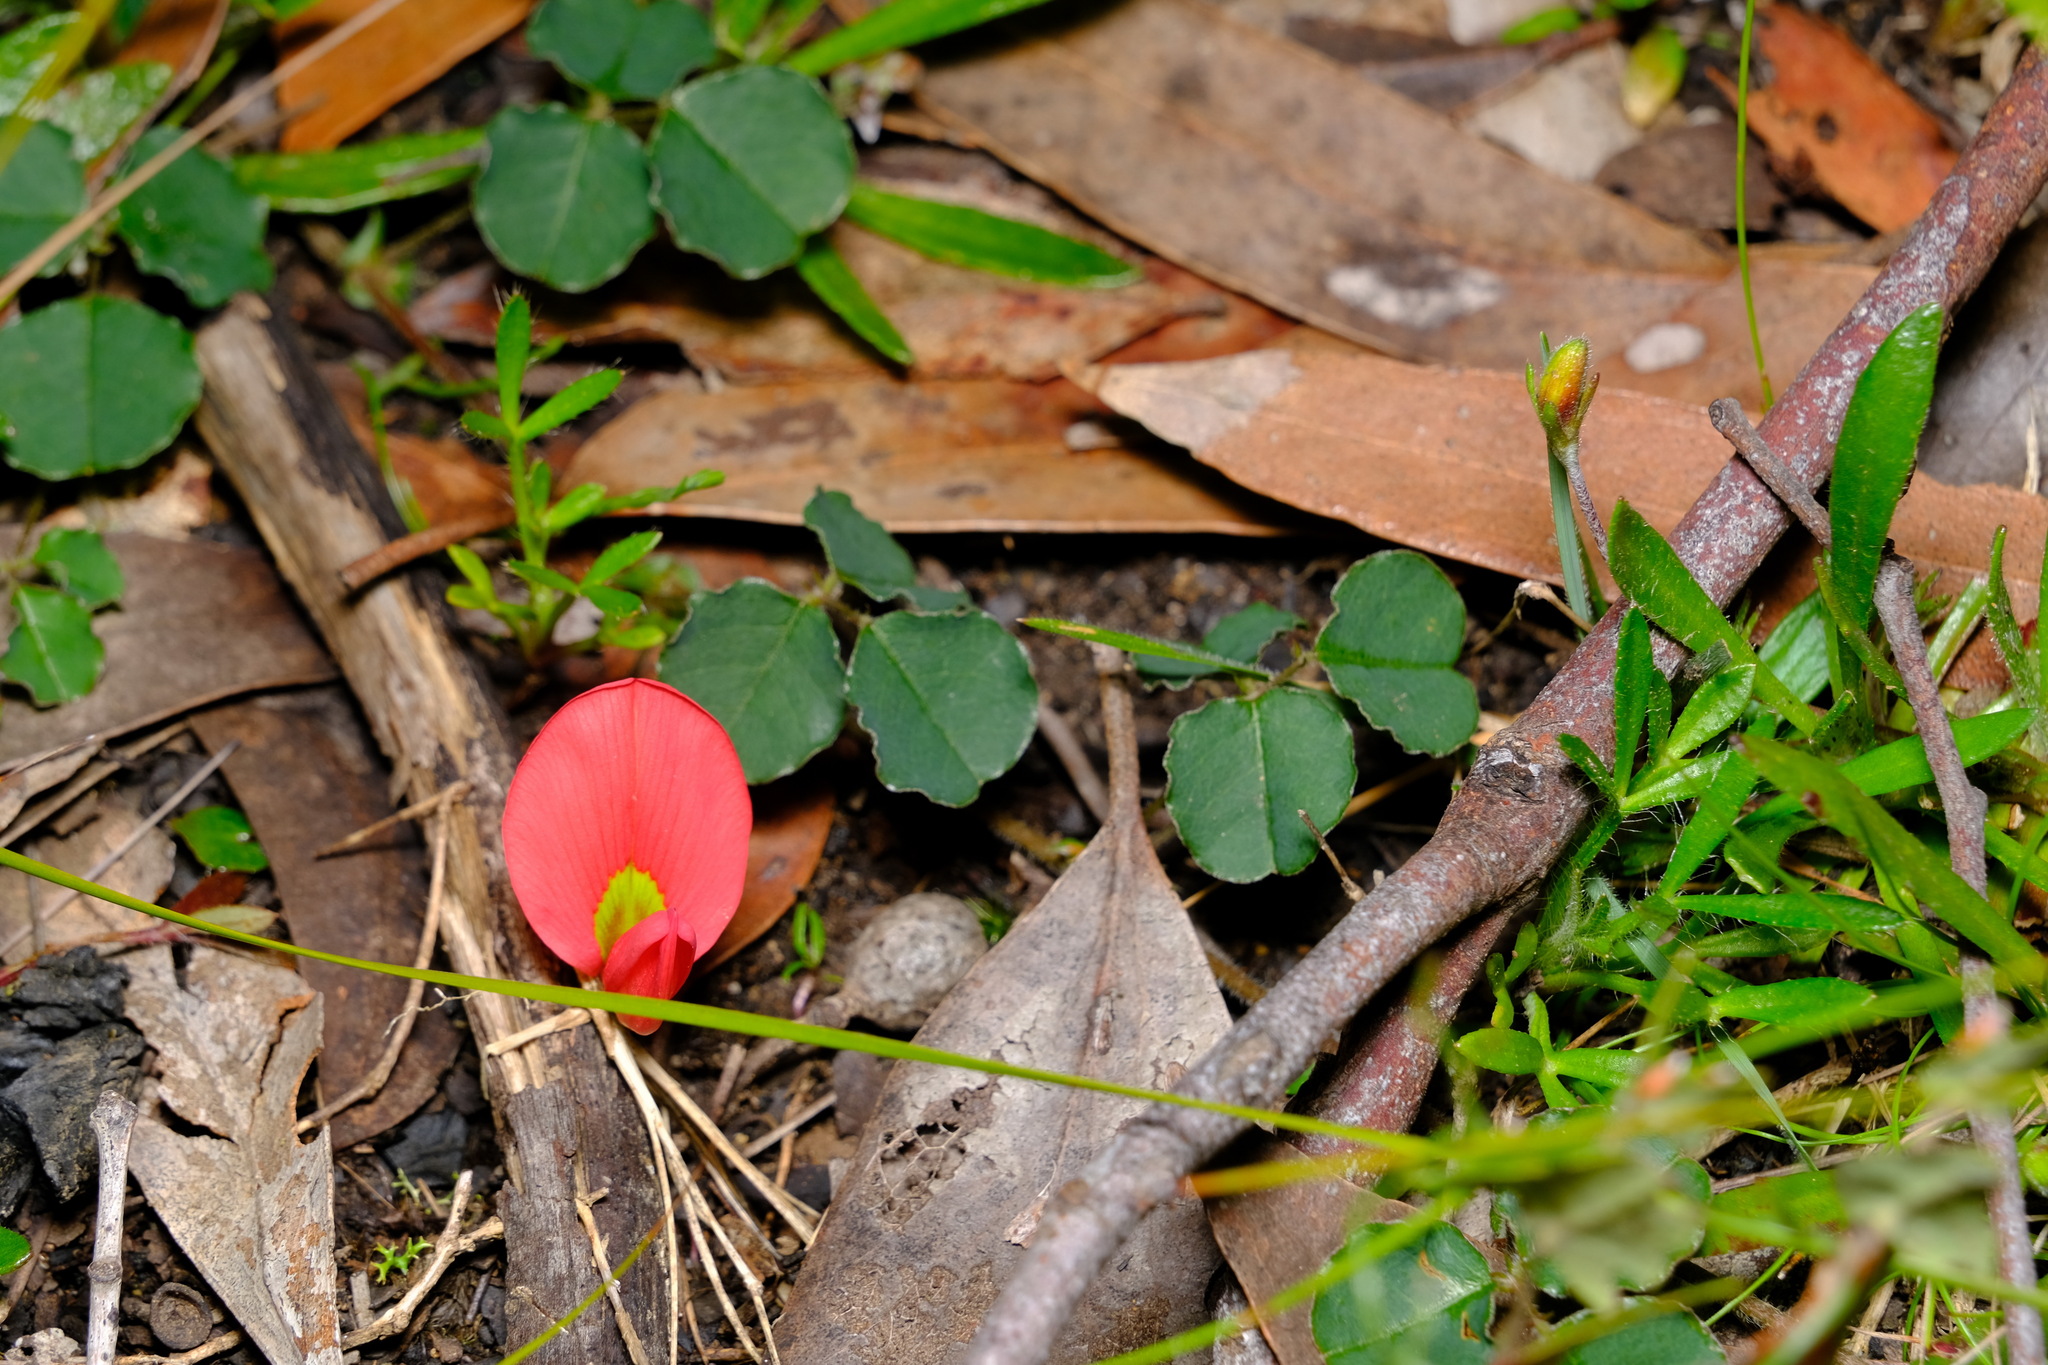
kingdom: Plantae
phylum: Tracheophyta
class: Magnoliopsida
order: Fabales
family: Fabaceae
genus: Kennedia
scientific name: Kennedia prostrata
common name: Running-postman
